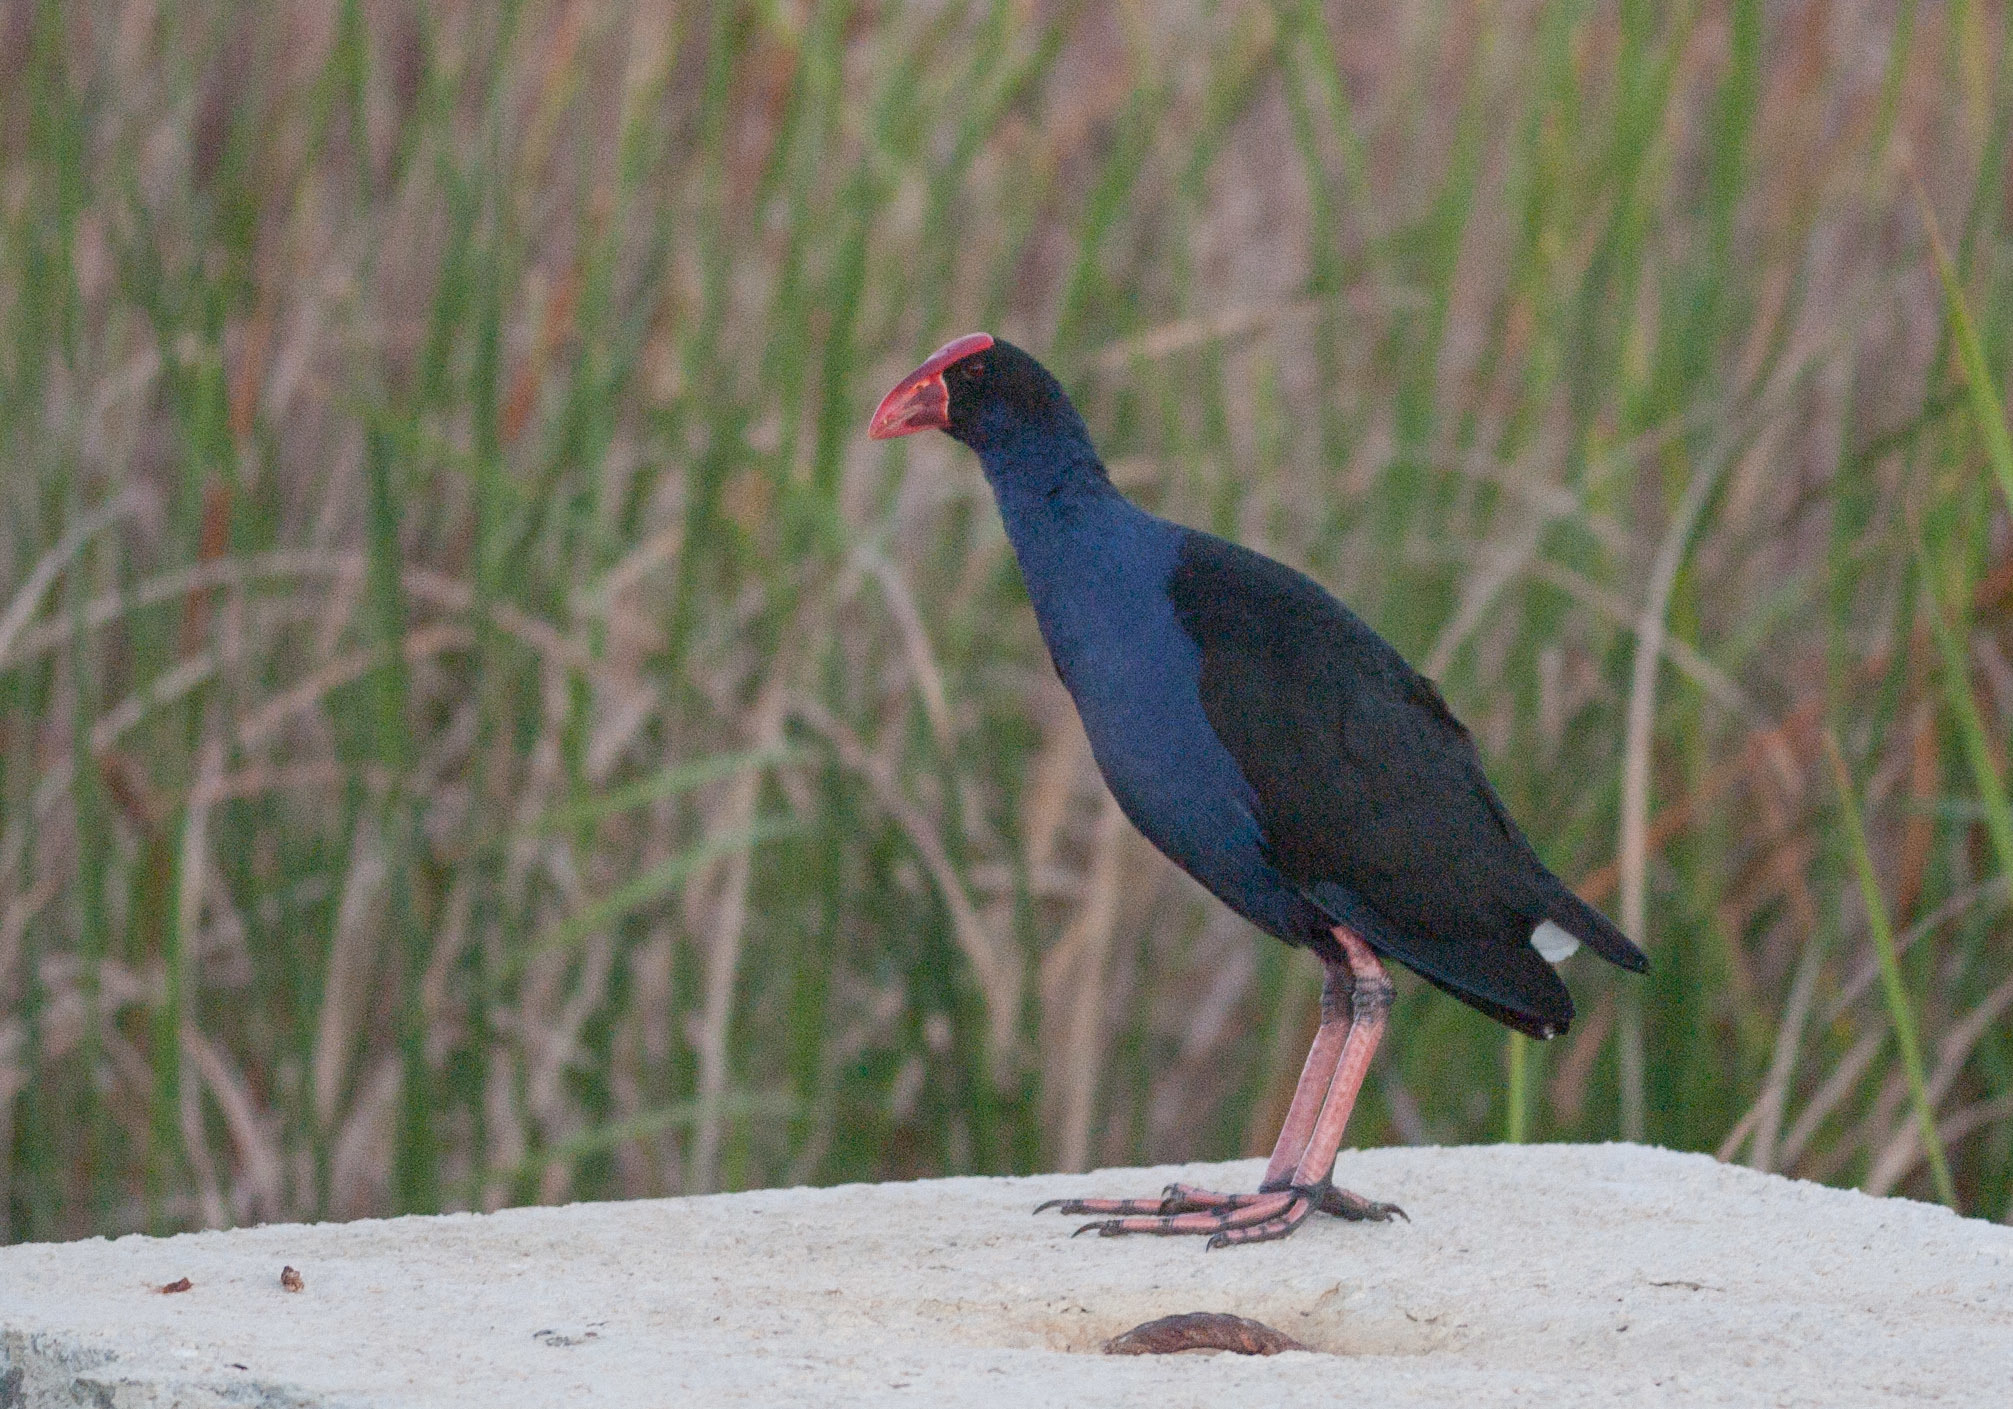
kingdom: Animalia
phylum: Chordata
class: Aves
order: Gruiformes
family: Rallidae
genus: Porphyrio
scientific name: Porphyrio melanotus
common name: Australasian swamphen
